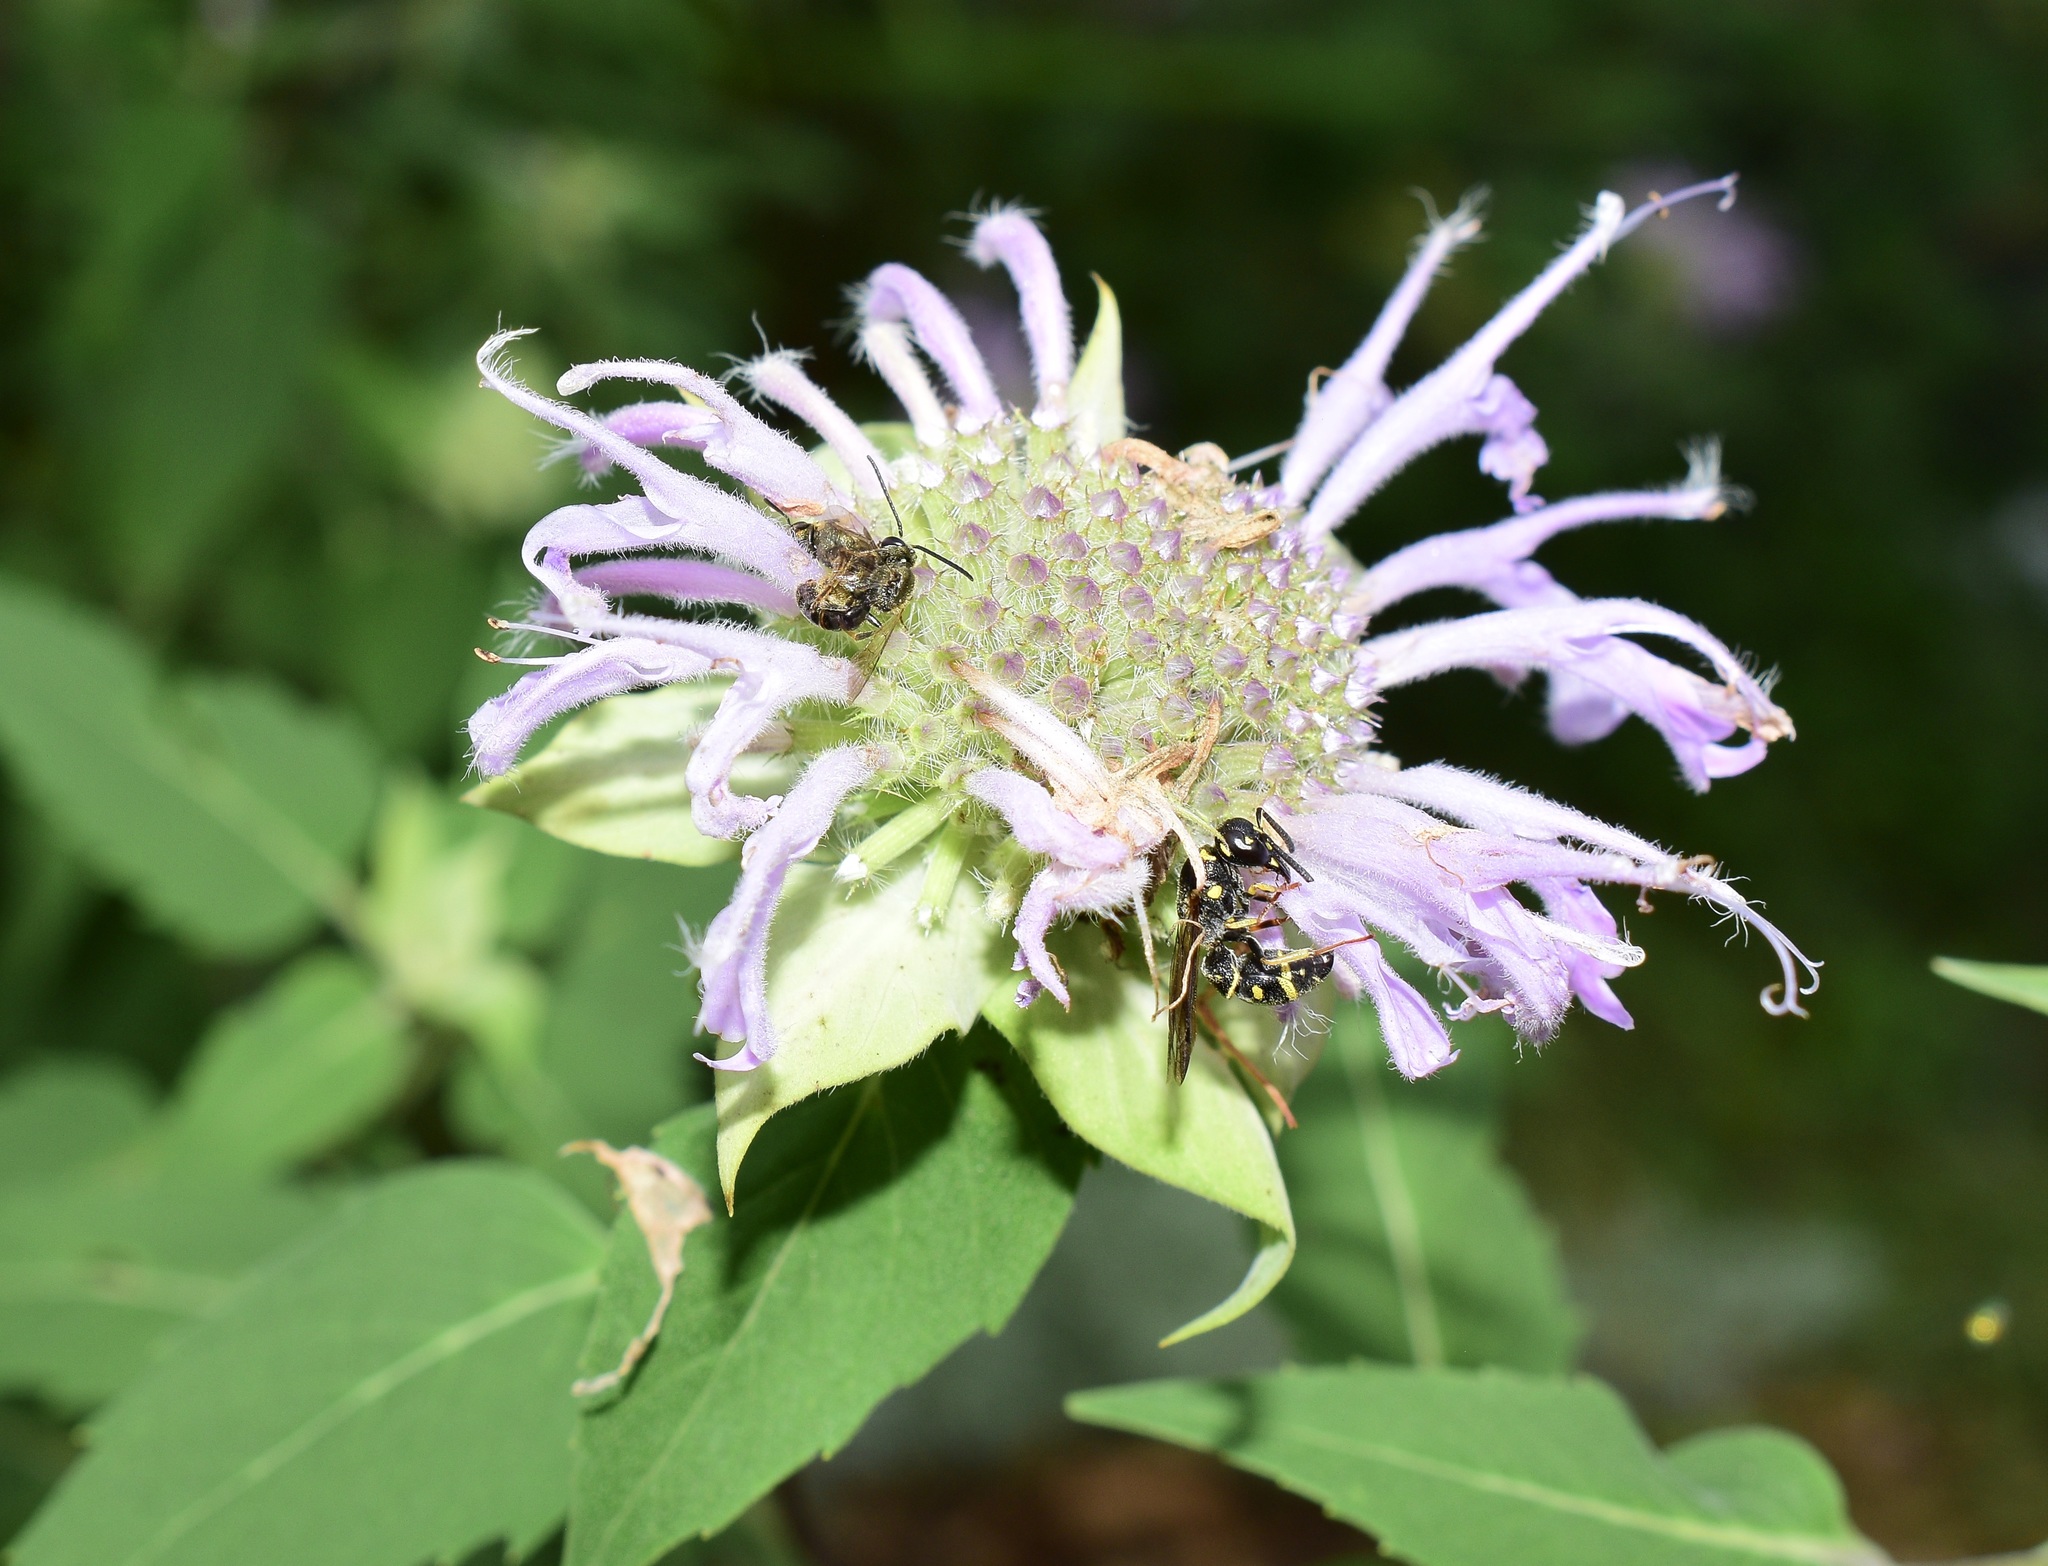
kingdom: Animalia
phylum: Arthropoda
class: Insecta
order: Hymenoptera
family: Eumenidae
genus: Parancistrocerus
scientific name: Parancistrocerus pedestris
